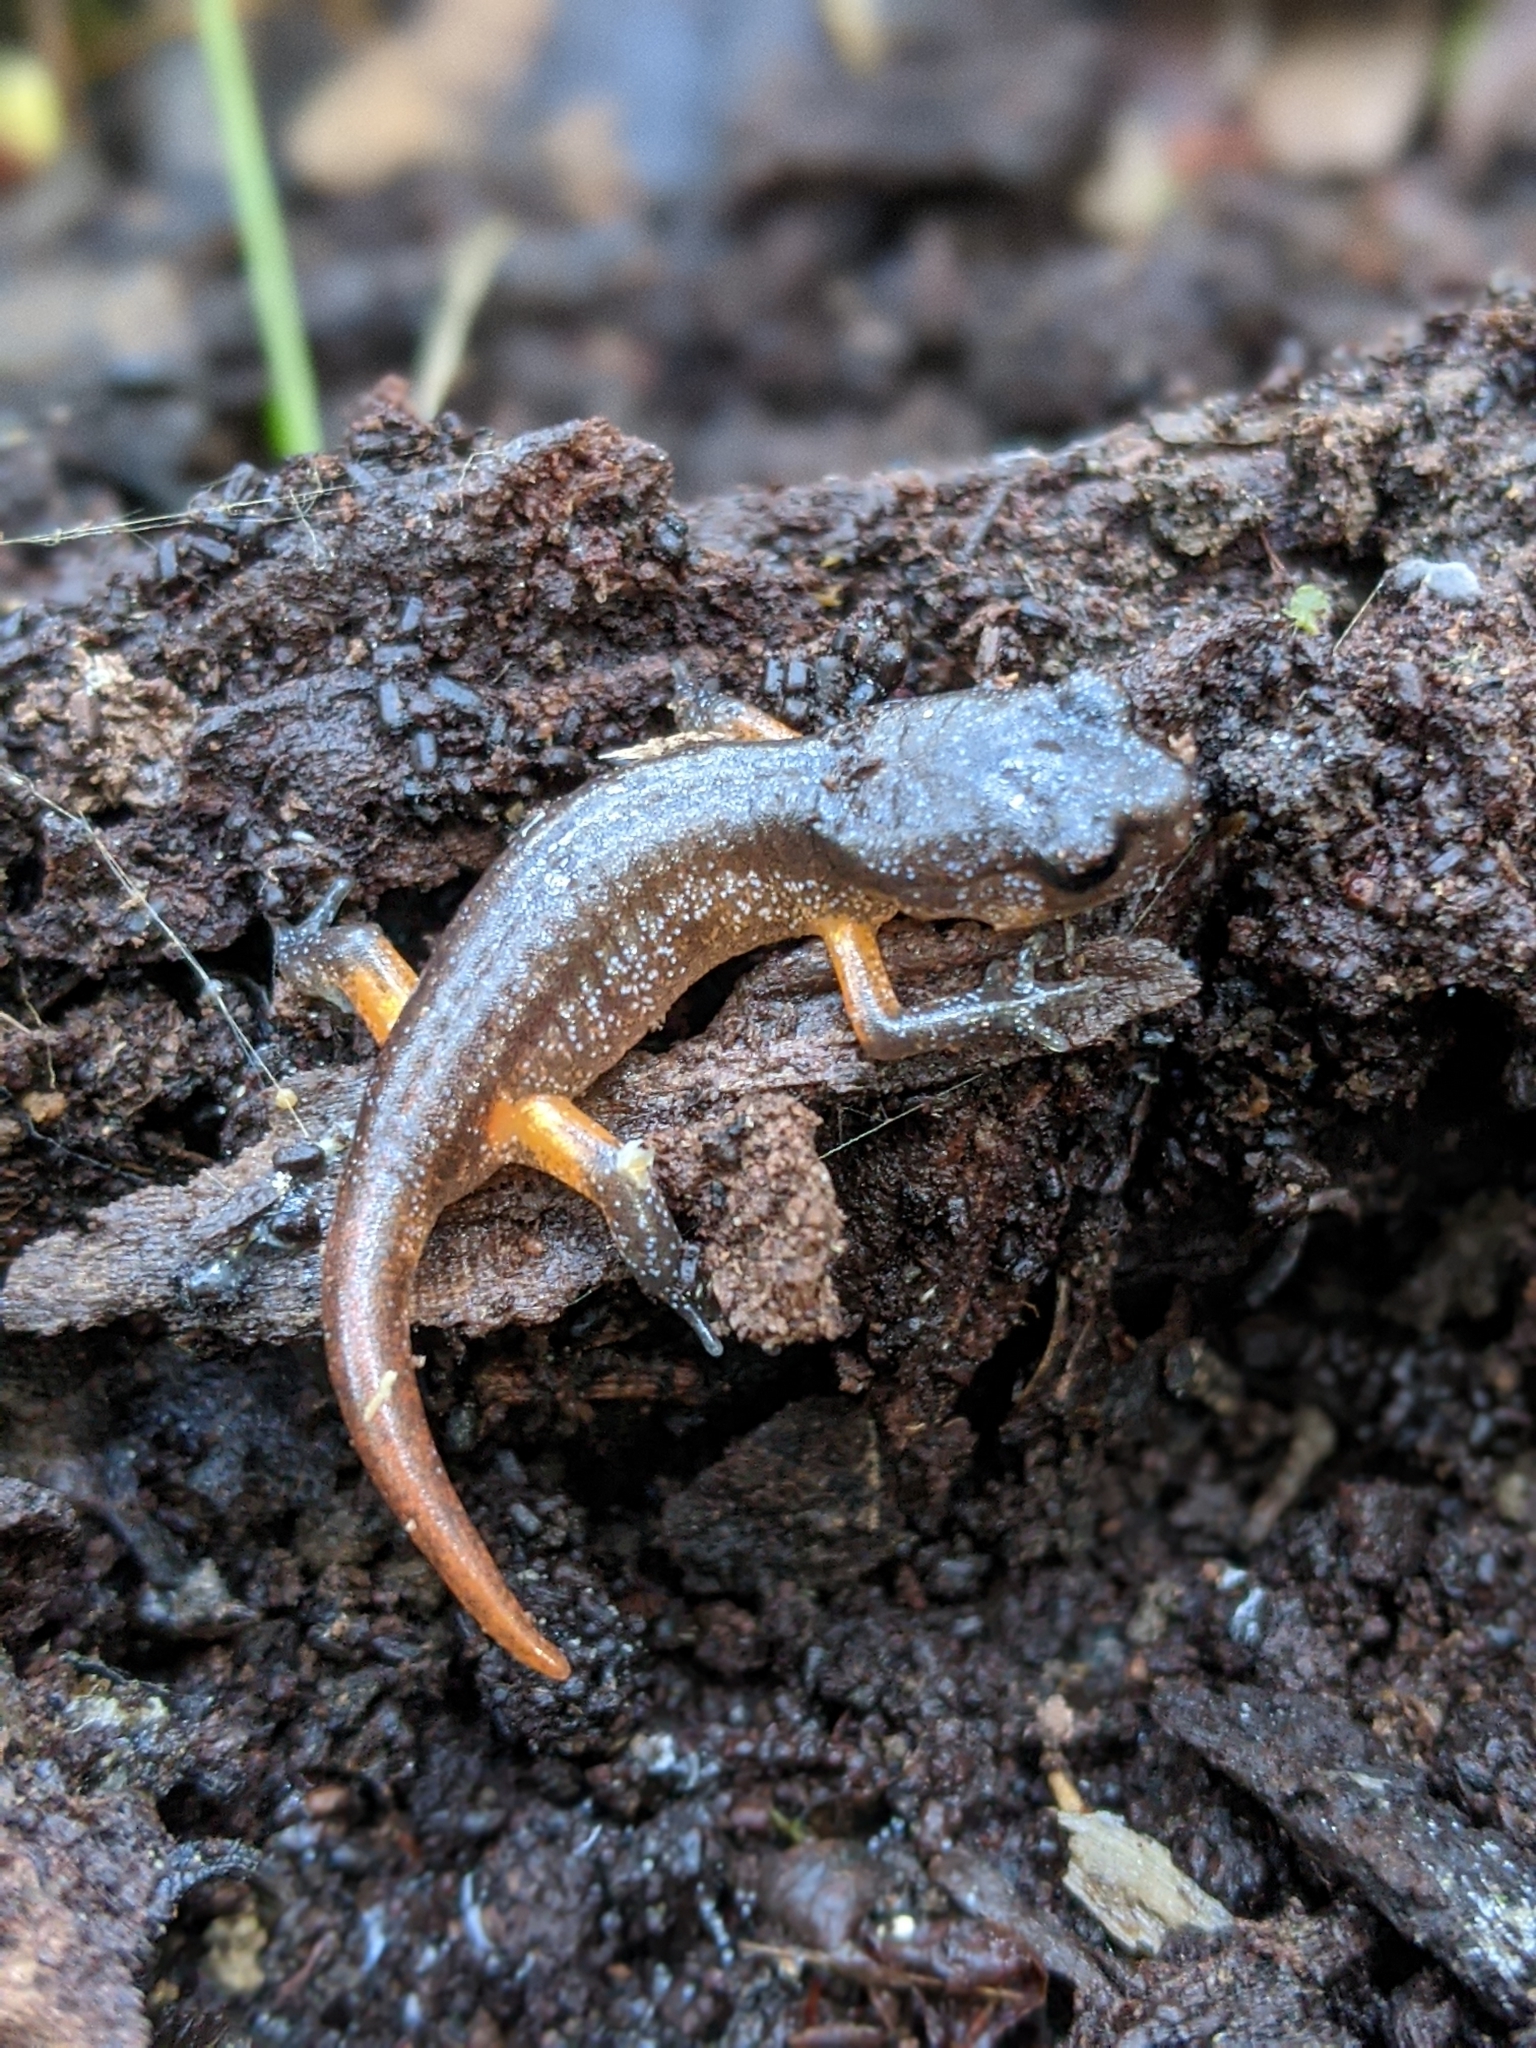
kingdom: Animalia
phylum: Chordata
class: Amphibia
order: Caudata
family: Plethodontidae
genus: Ensatina
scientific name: Ensatina eschscholtzii
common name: Ensatina
